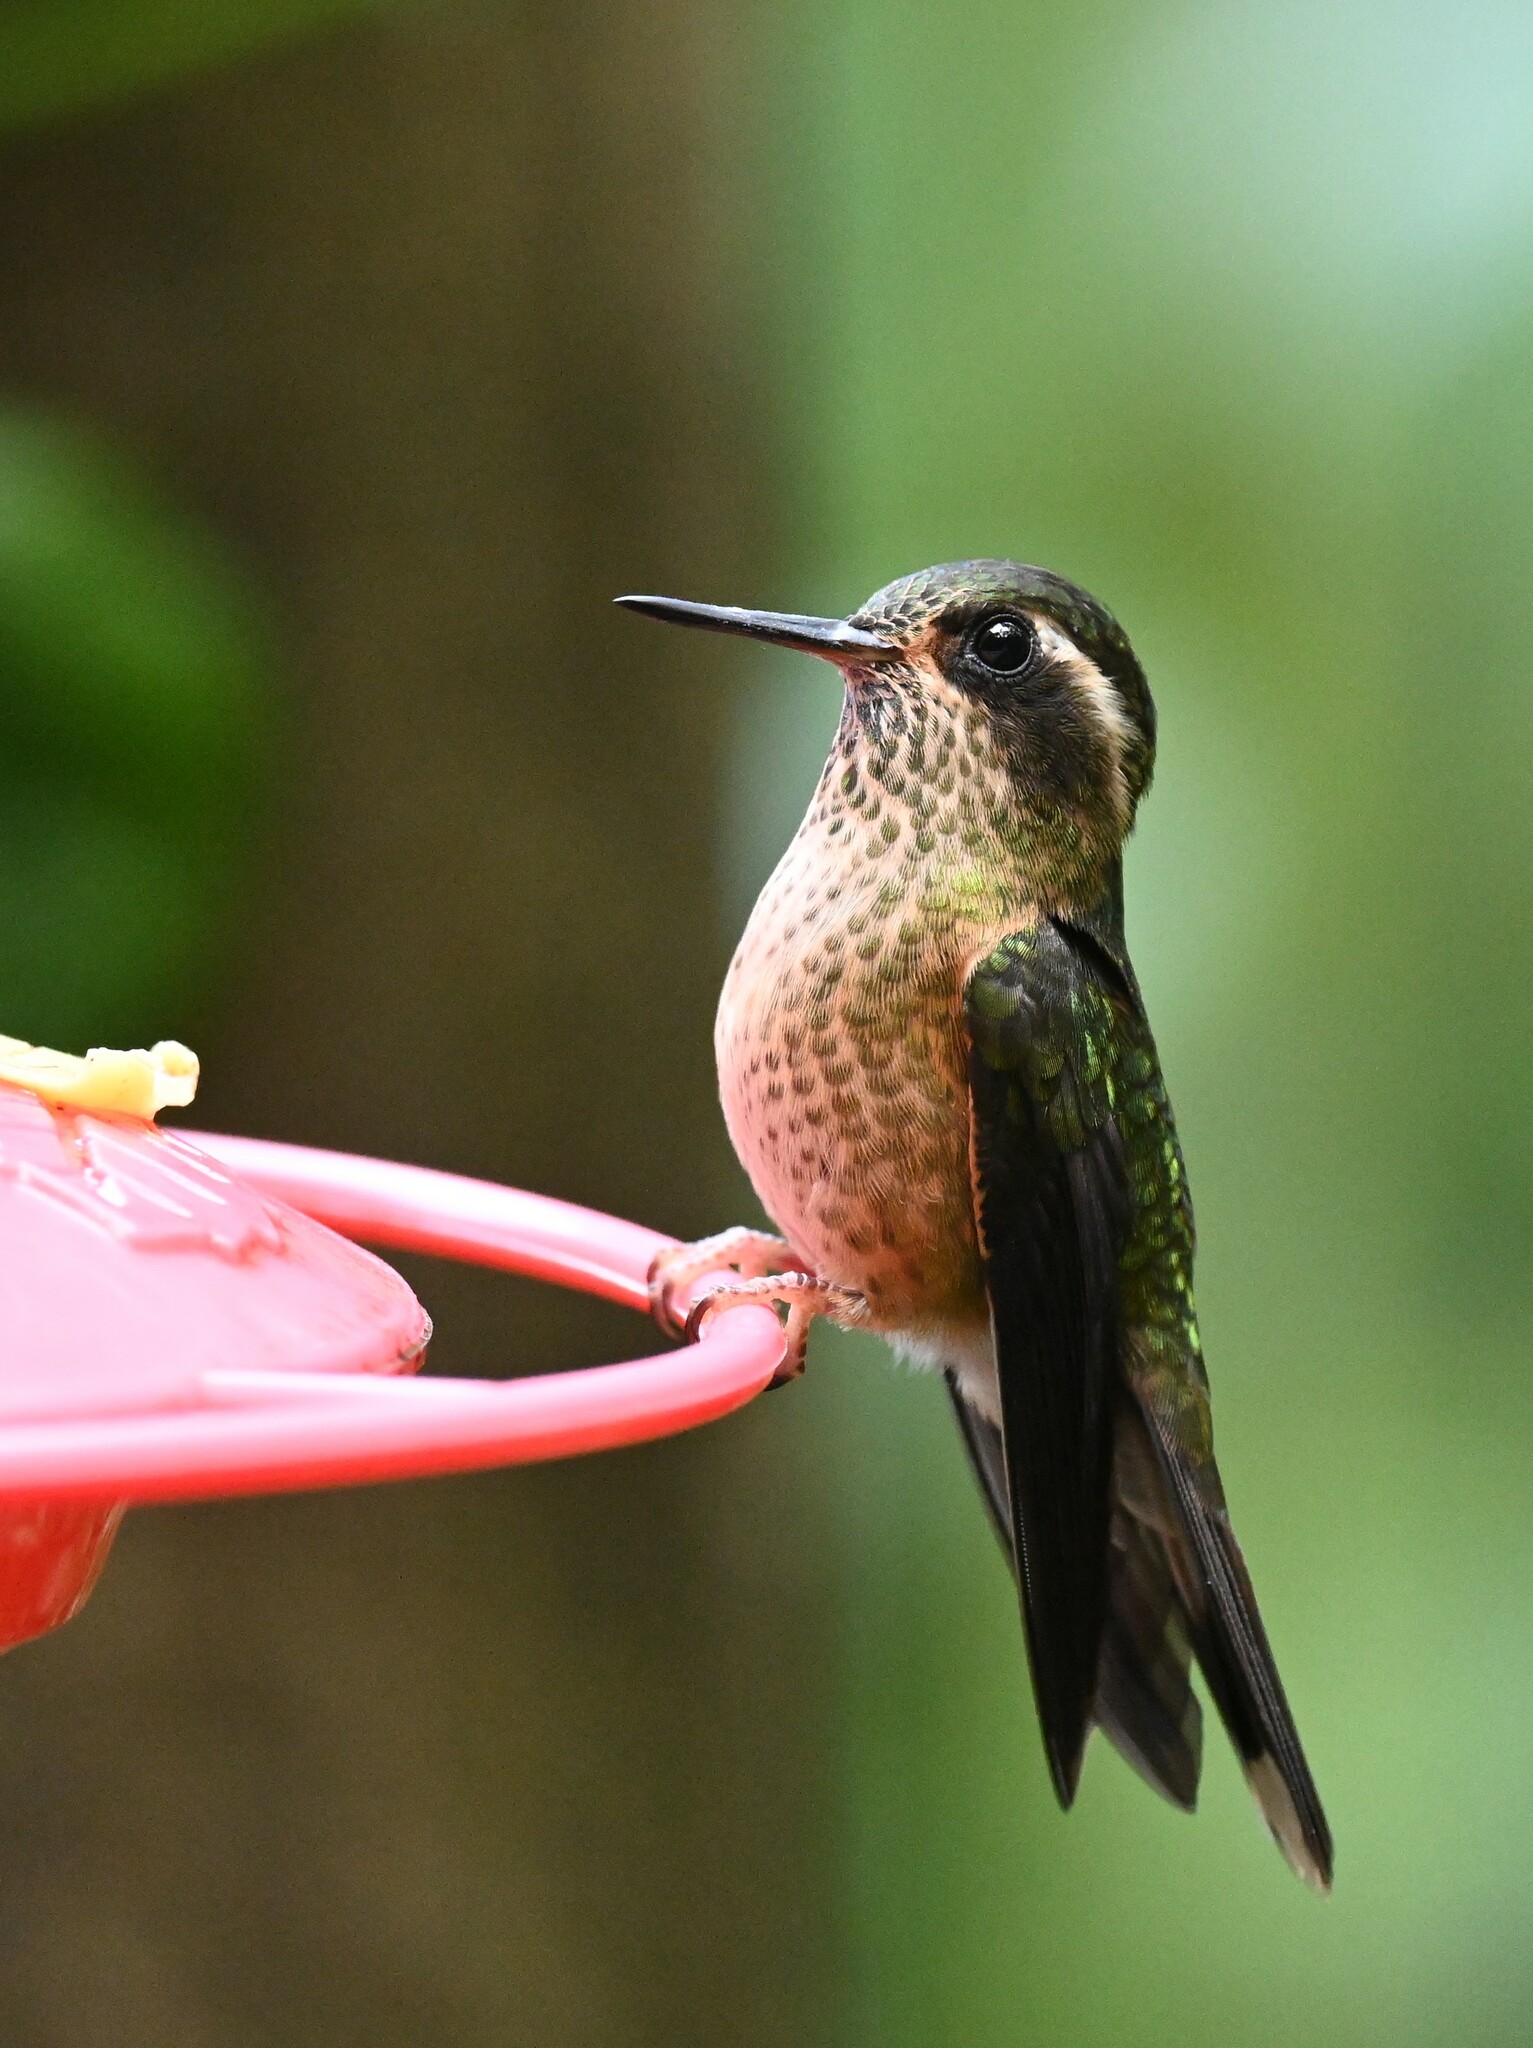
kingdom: Animalia
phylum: Chordata
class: Aves
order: Apodiformes
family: Trochilidae
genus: Adelomyia
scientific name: Adelomyia melanogenys
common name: Speckled hummingbird
